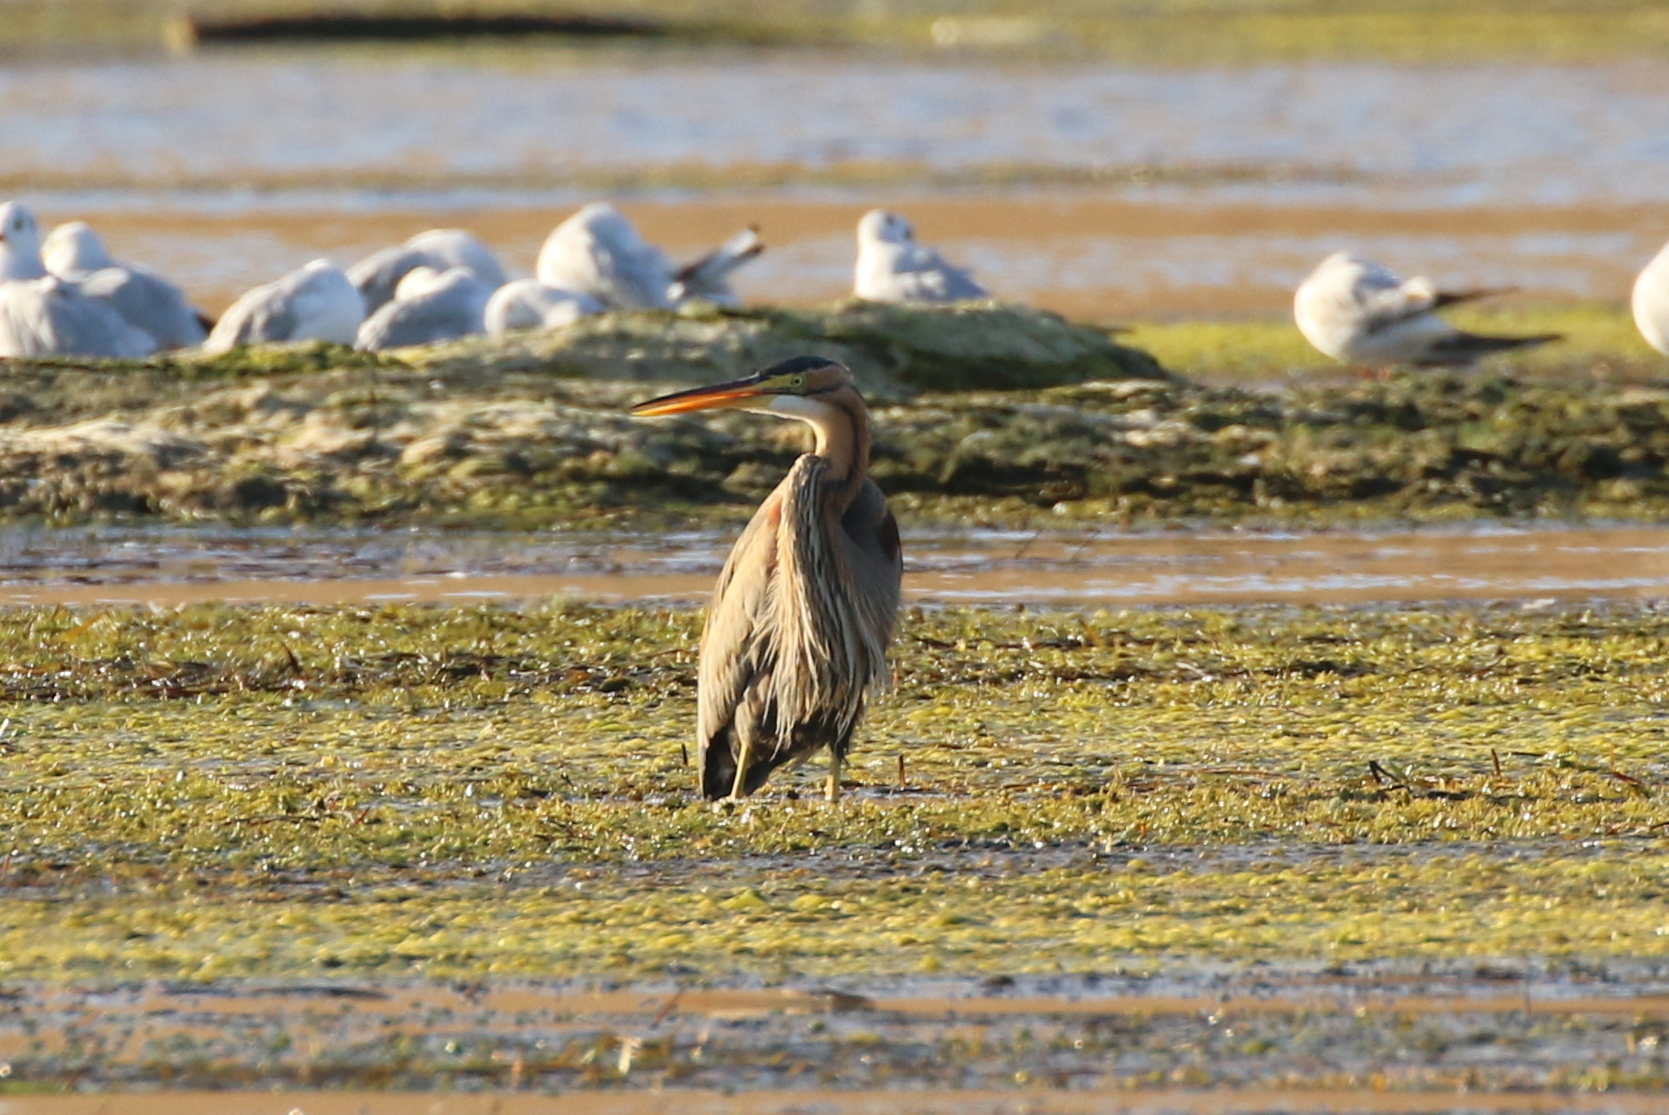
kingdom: Animalia
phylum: Chordata
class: Aves
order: Pelecaniformes
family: Ardeidae
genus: Ardea
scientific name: Ardea purpurea
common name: Purple heron
